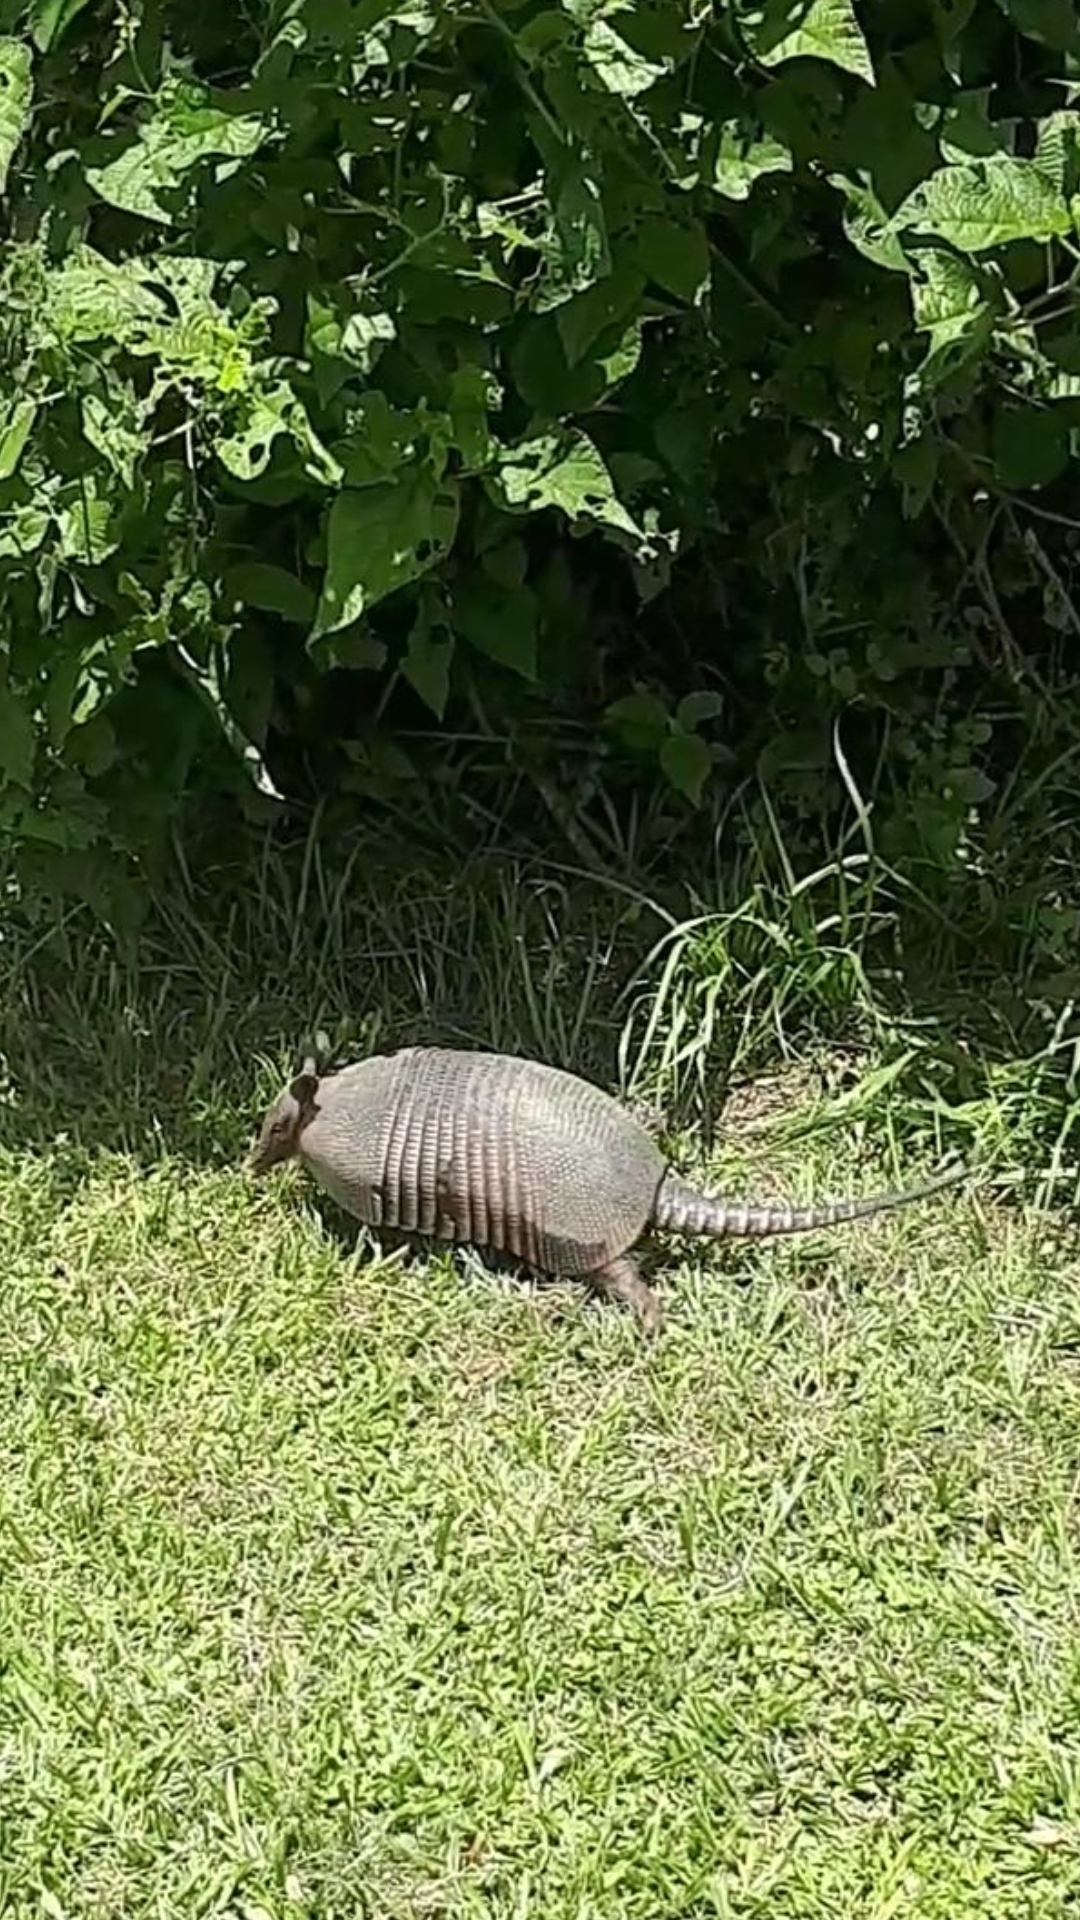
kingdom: Animalia
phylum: Chordata
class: Mammalia
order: Cingulata
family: Dasypodidae
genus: Dasypus
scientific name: Dasypus novemcinctus
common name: Nine-banded armadillo
